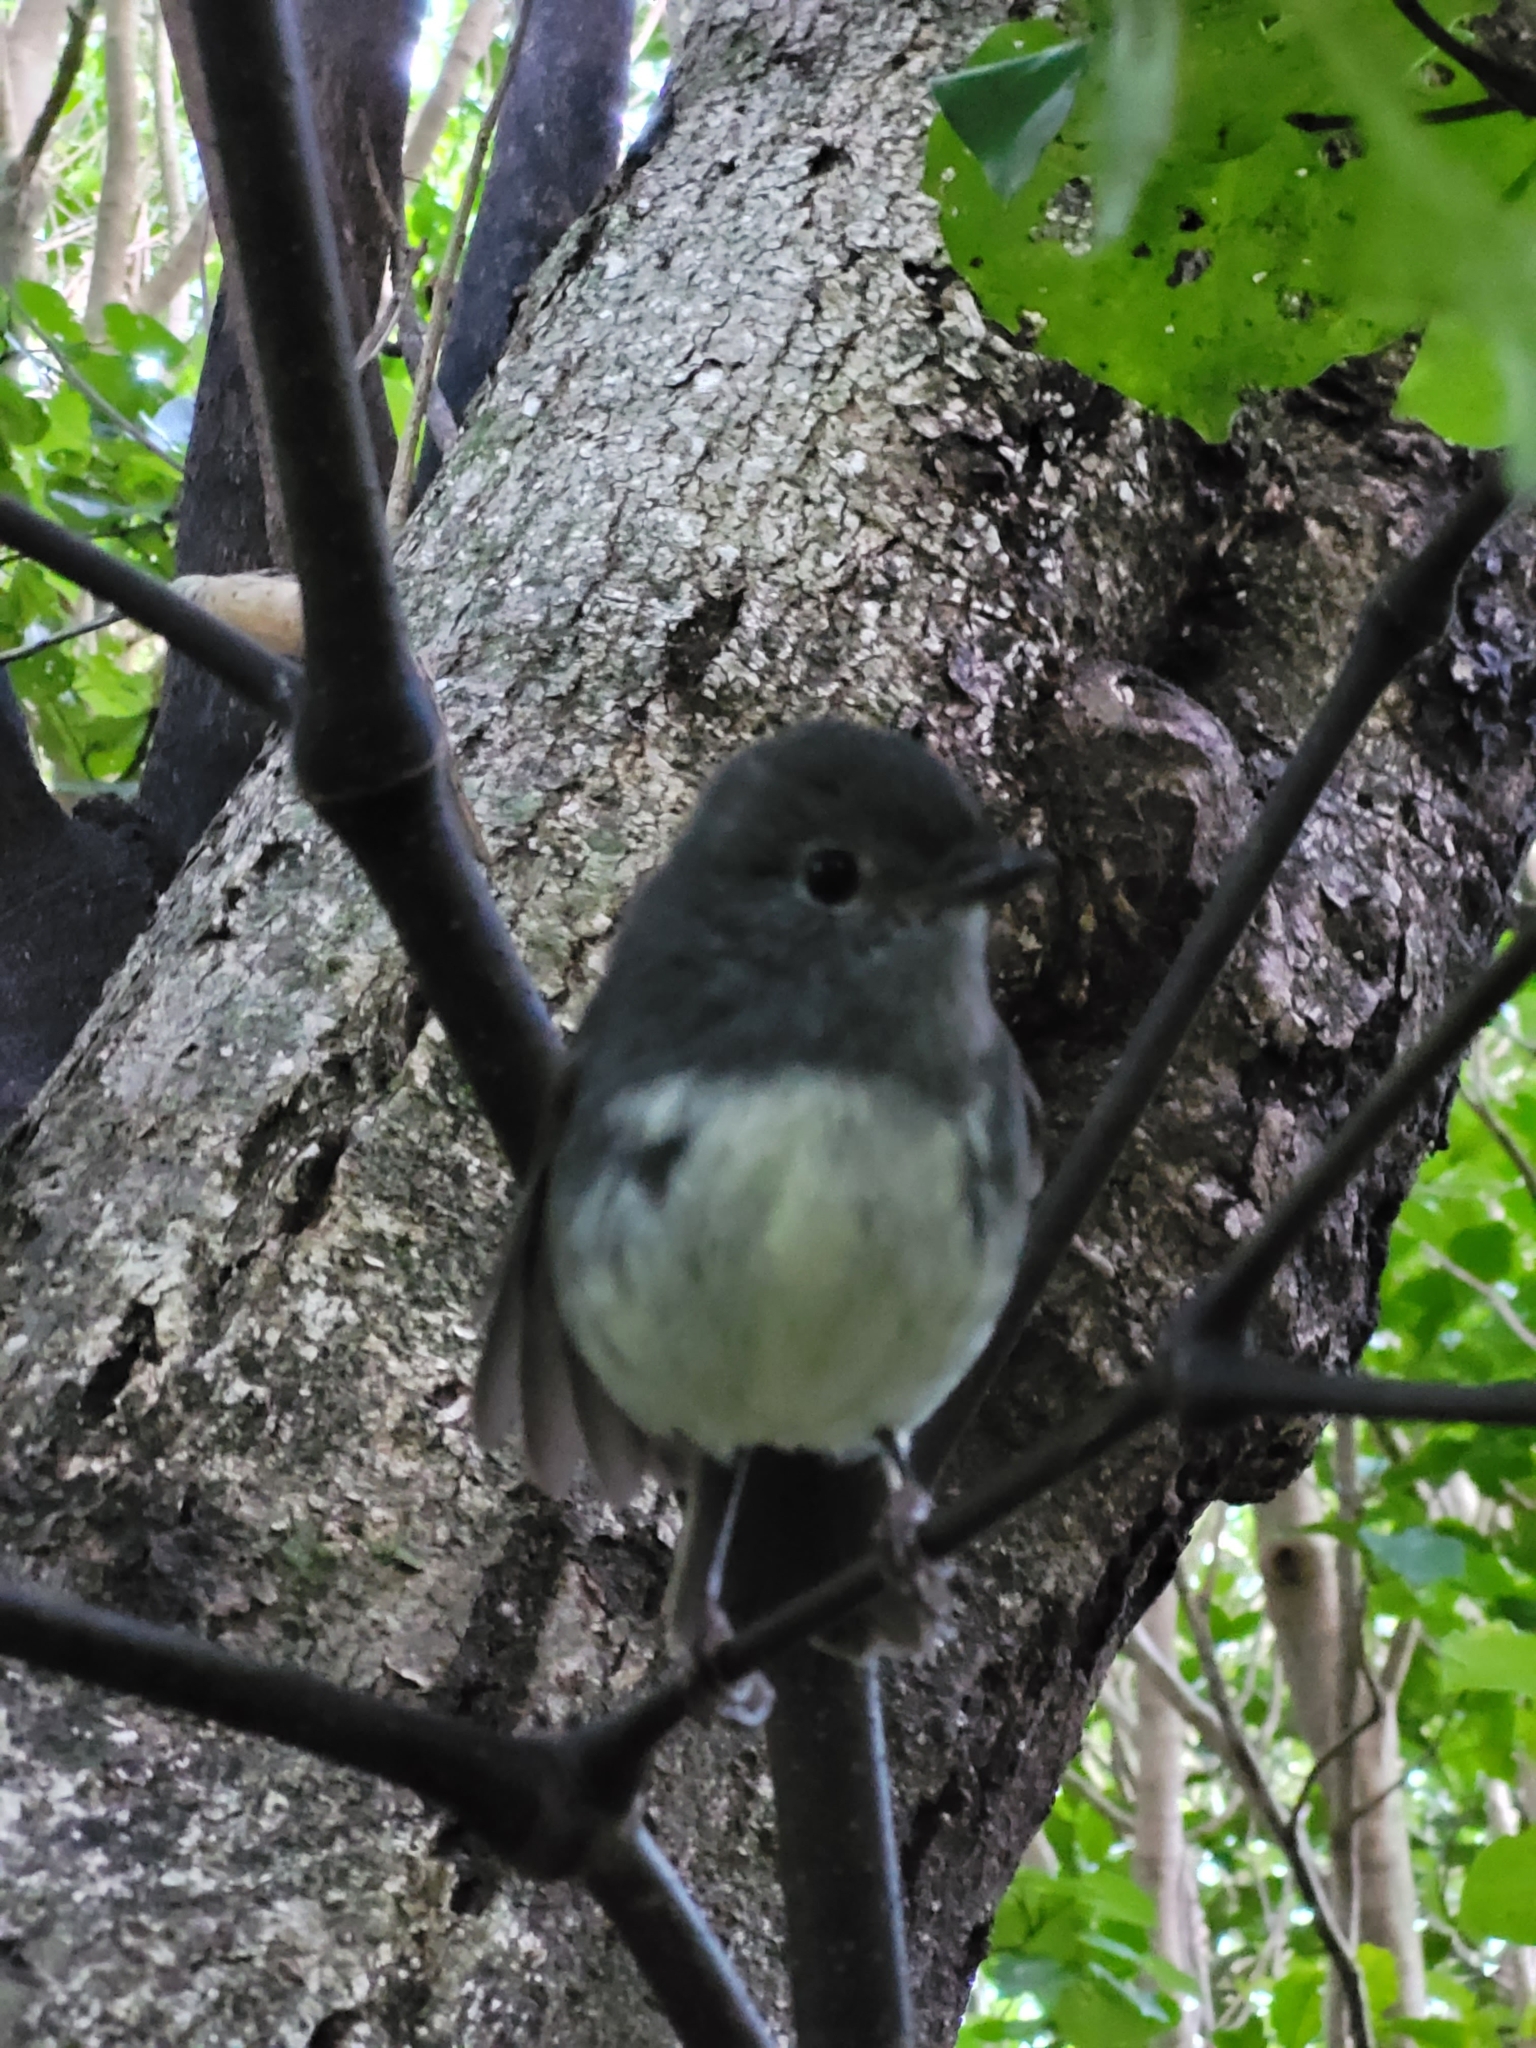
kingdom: Animalia
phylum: Chordata
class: Aves
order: Passeriformes
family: Petroicidae
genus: Petroica
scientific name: Petroica australis
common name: New zealand robin
